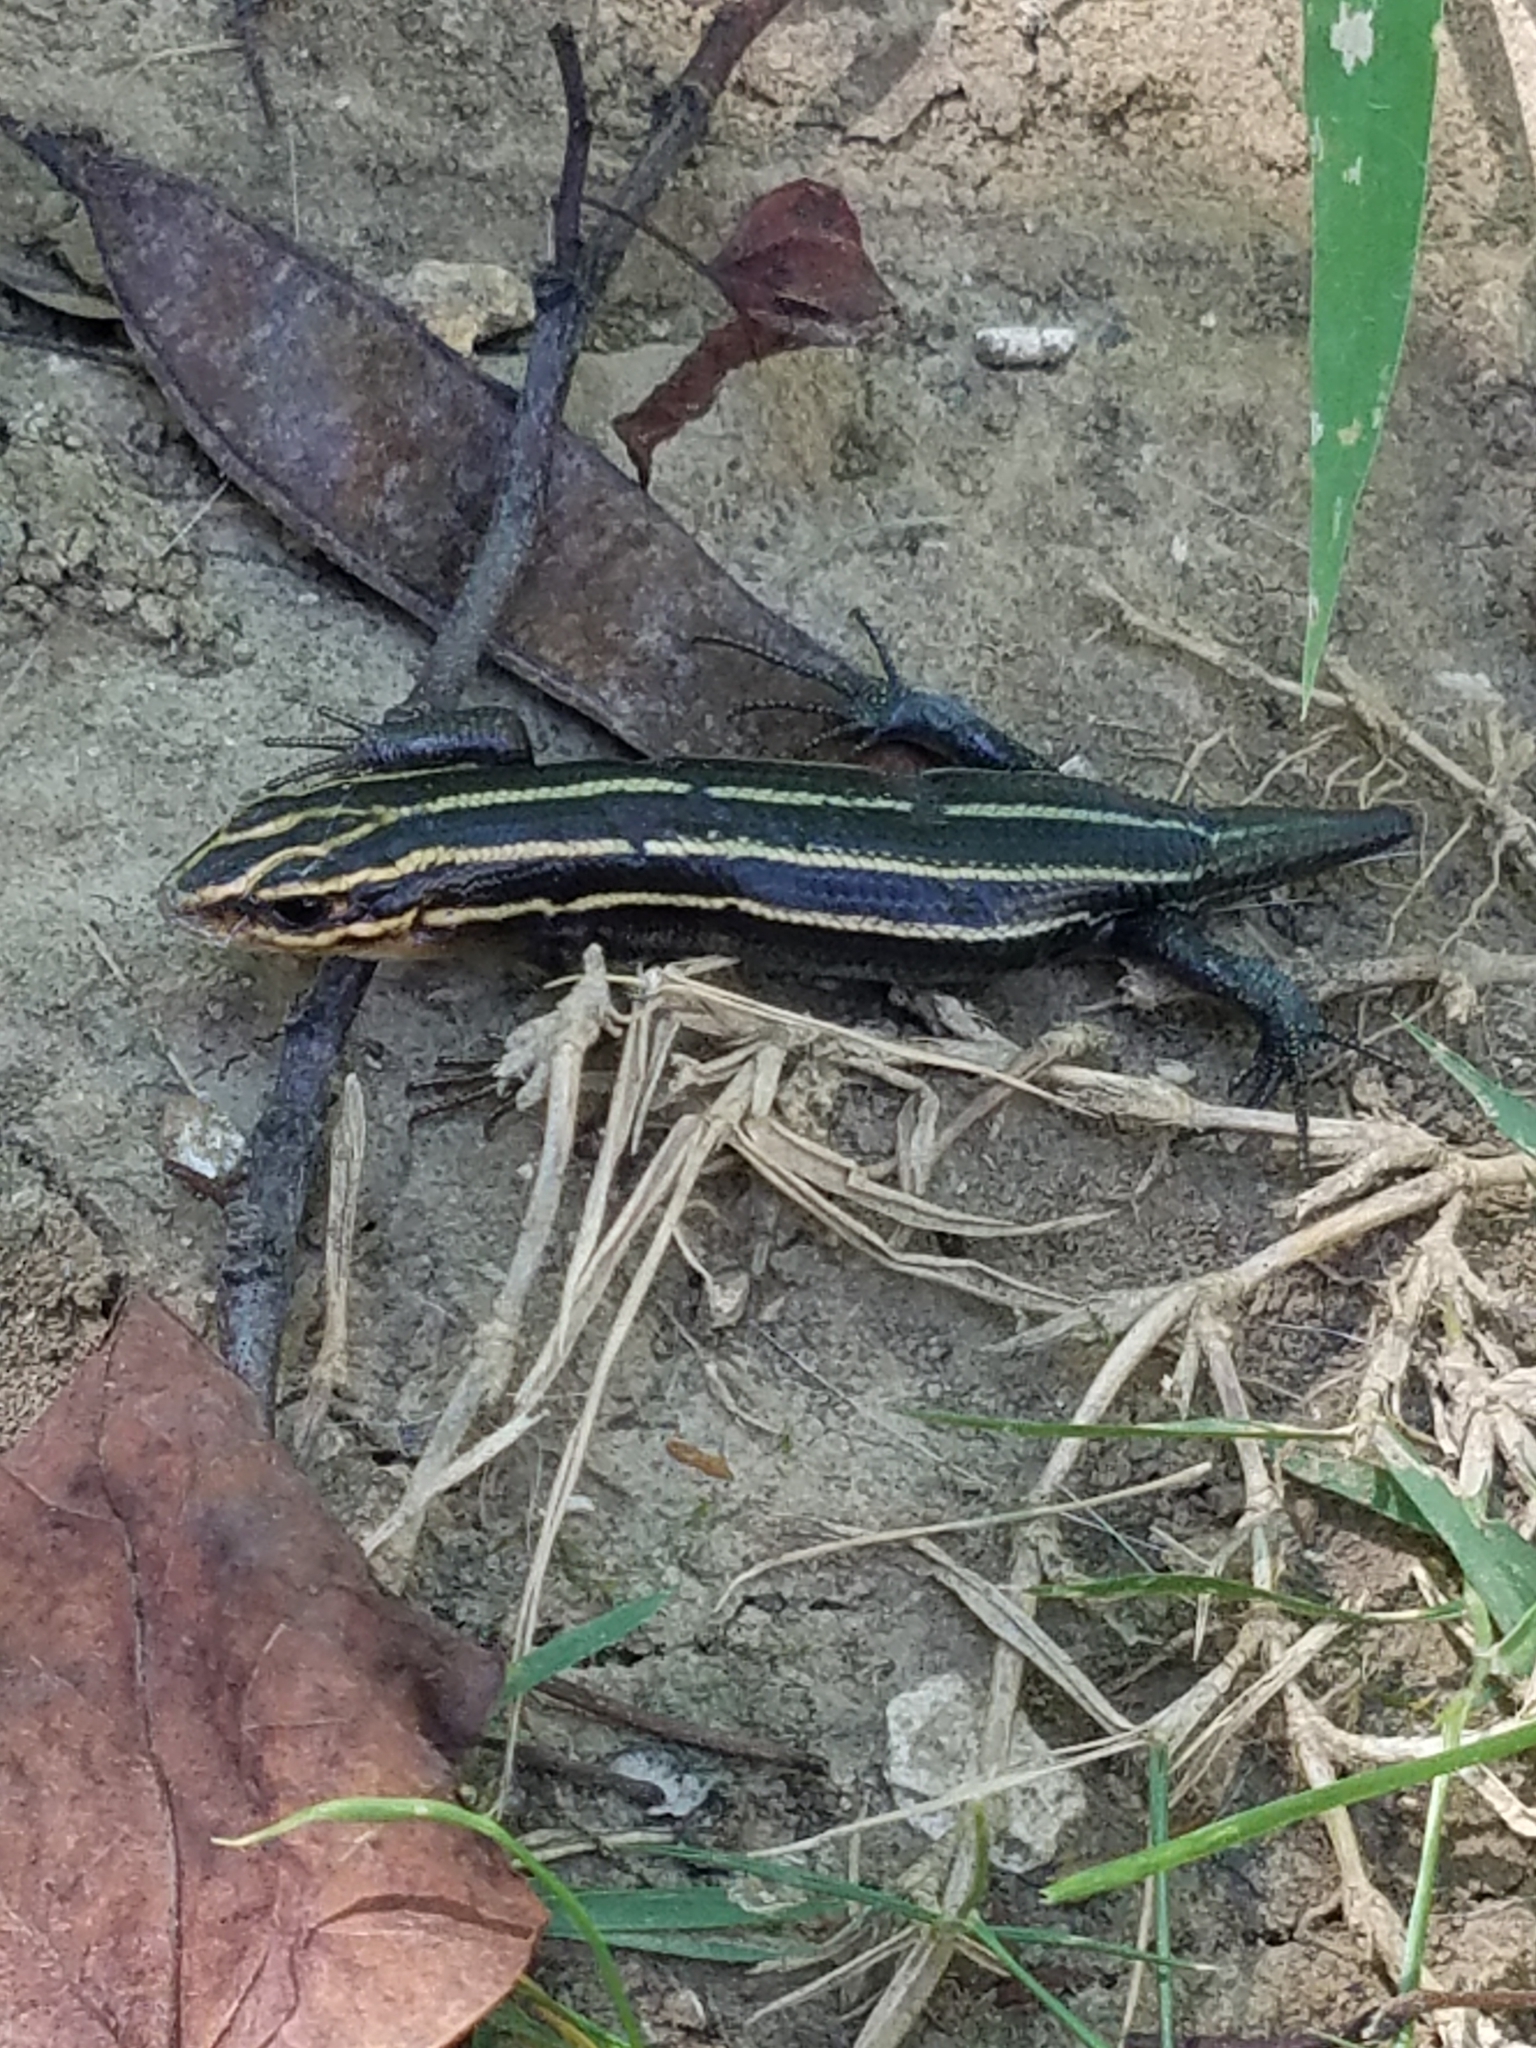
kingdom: Animalia
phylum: Chordata
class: Squamata
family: Scincidae
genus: Plestiodon
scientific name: Plestiodon fasciatus
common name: Five-lined skink
